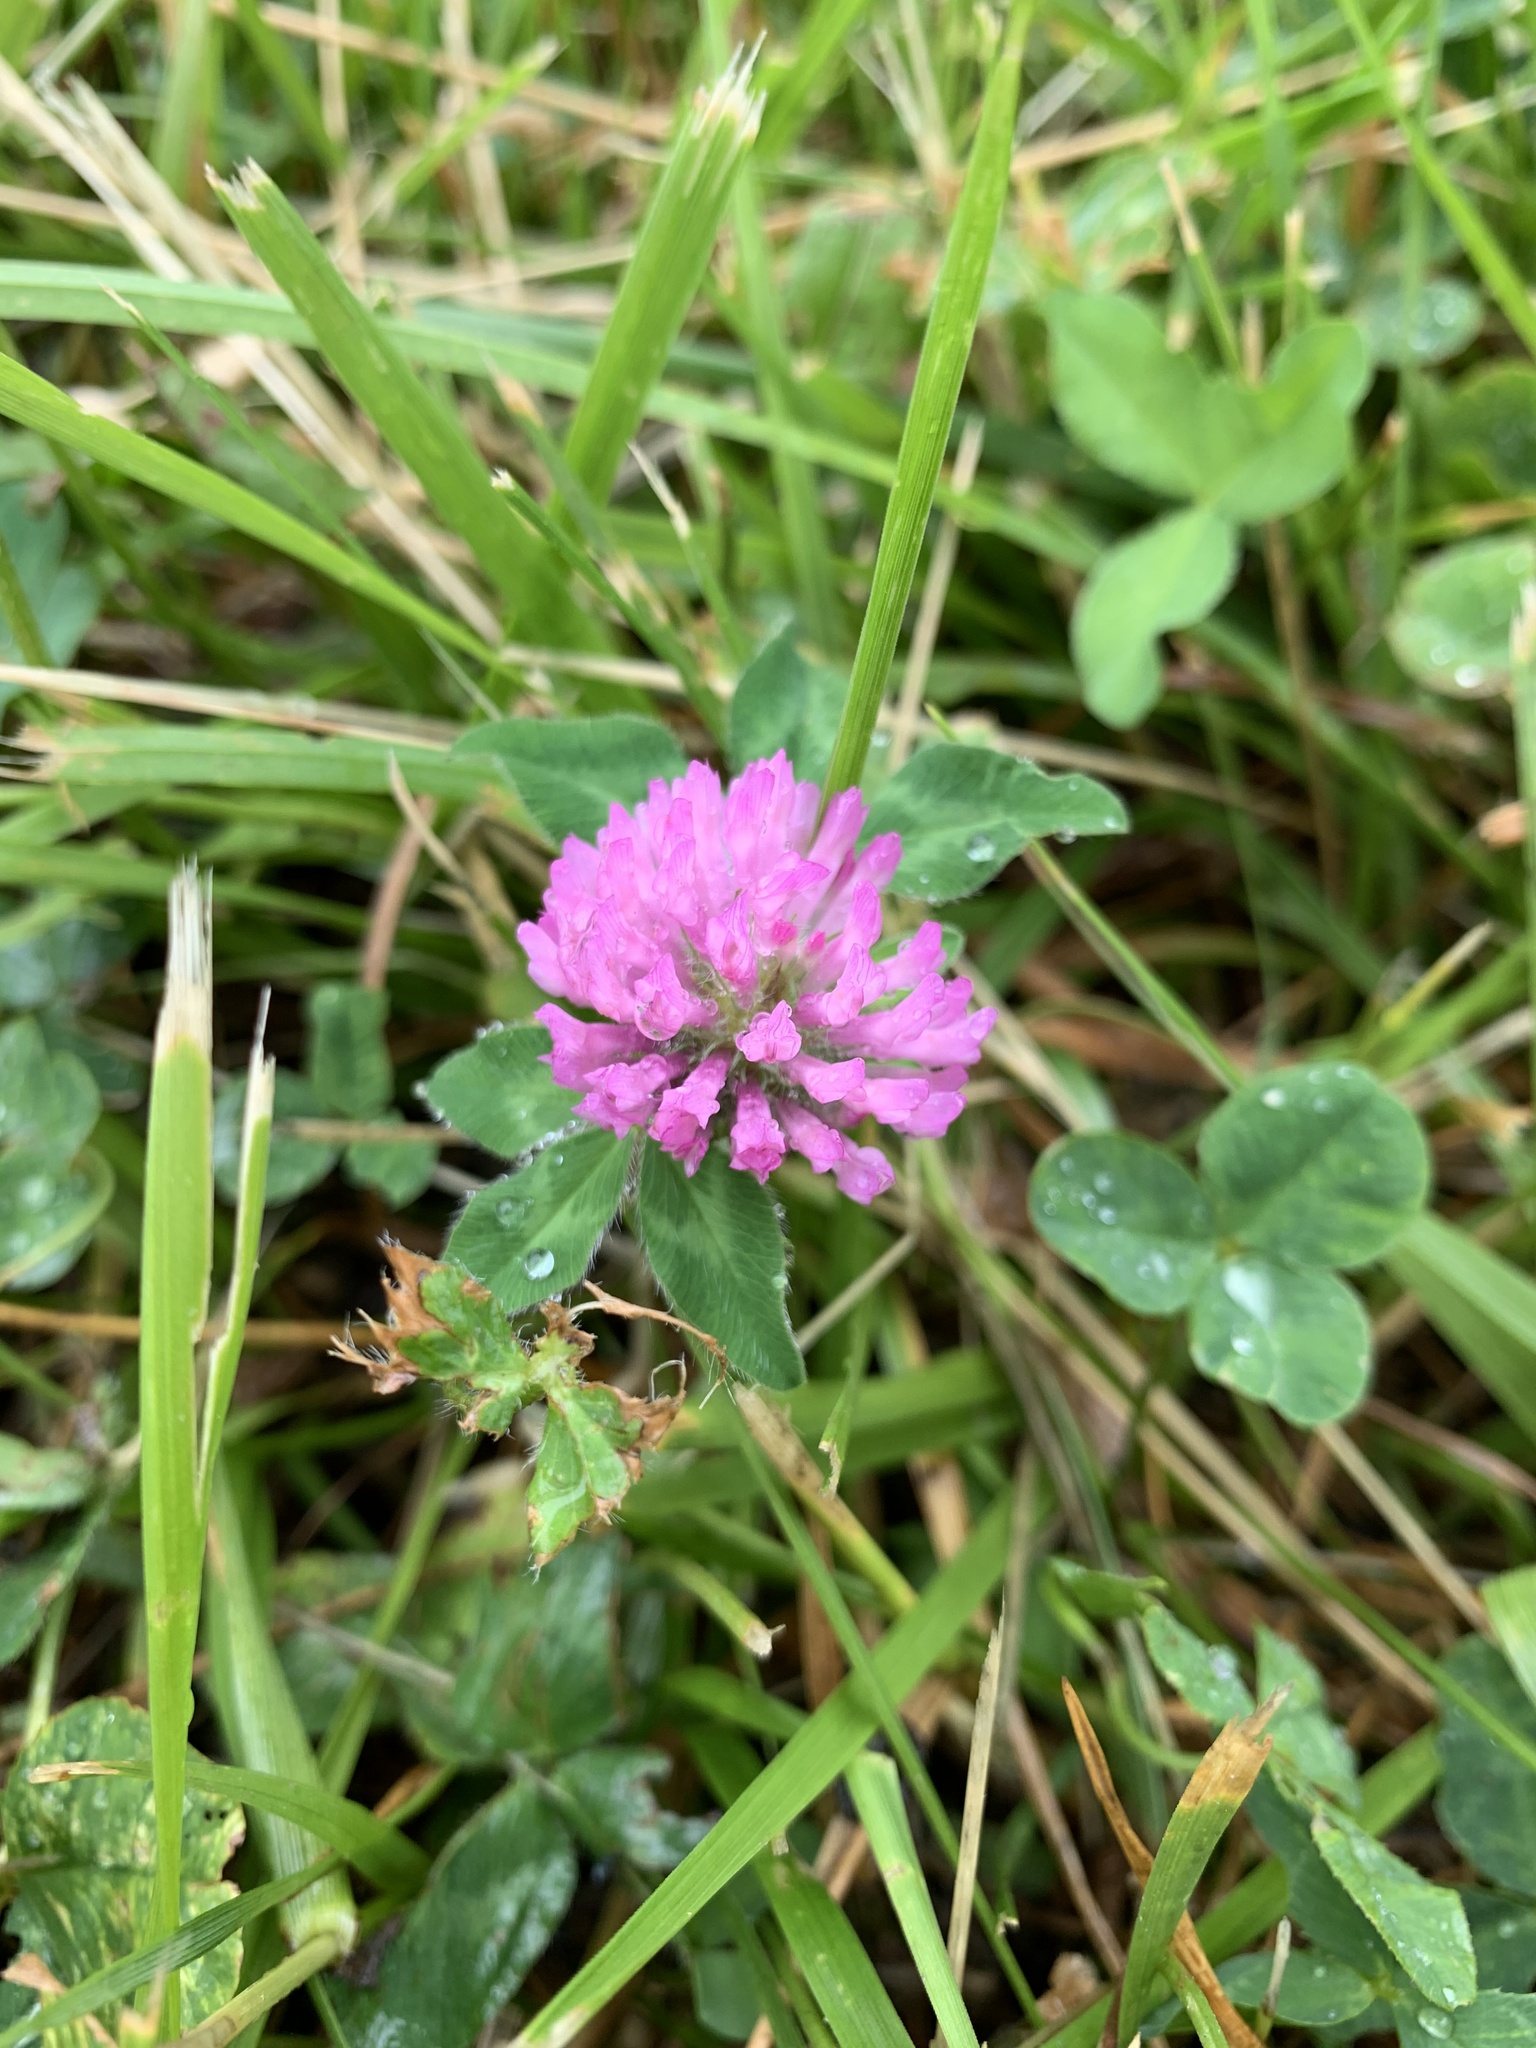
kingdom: Plantae
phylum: Tracheophyta
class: Magnoliopsida
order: Fabales
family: Fabaceae
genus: Trifolium
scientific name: Trifolium pratense
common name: Red clover
